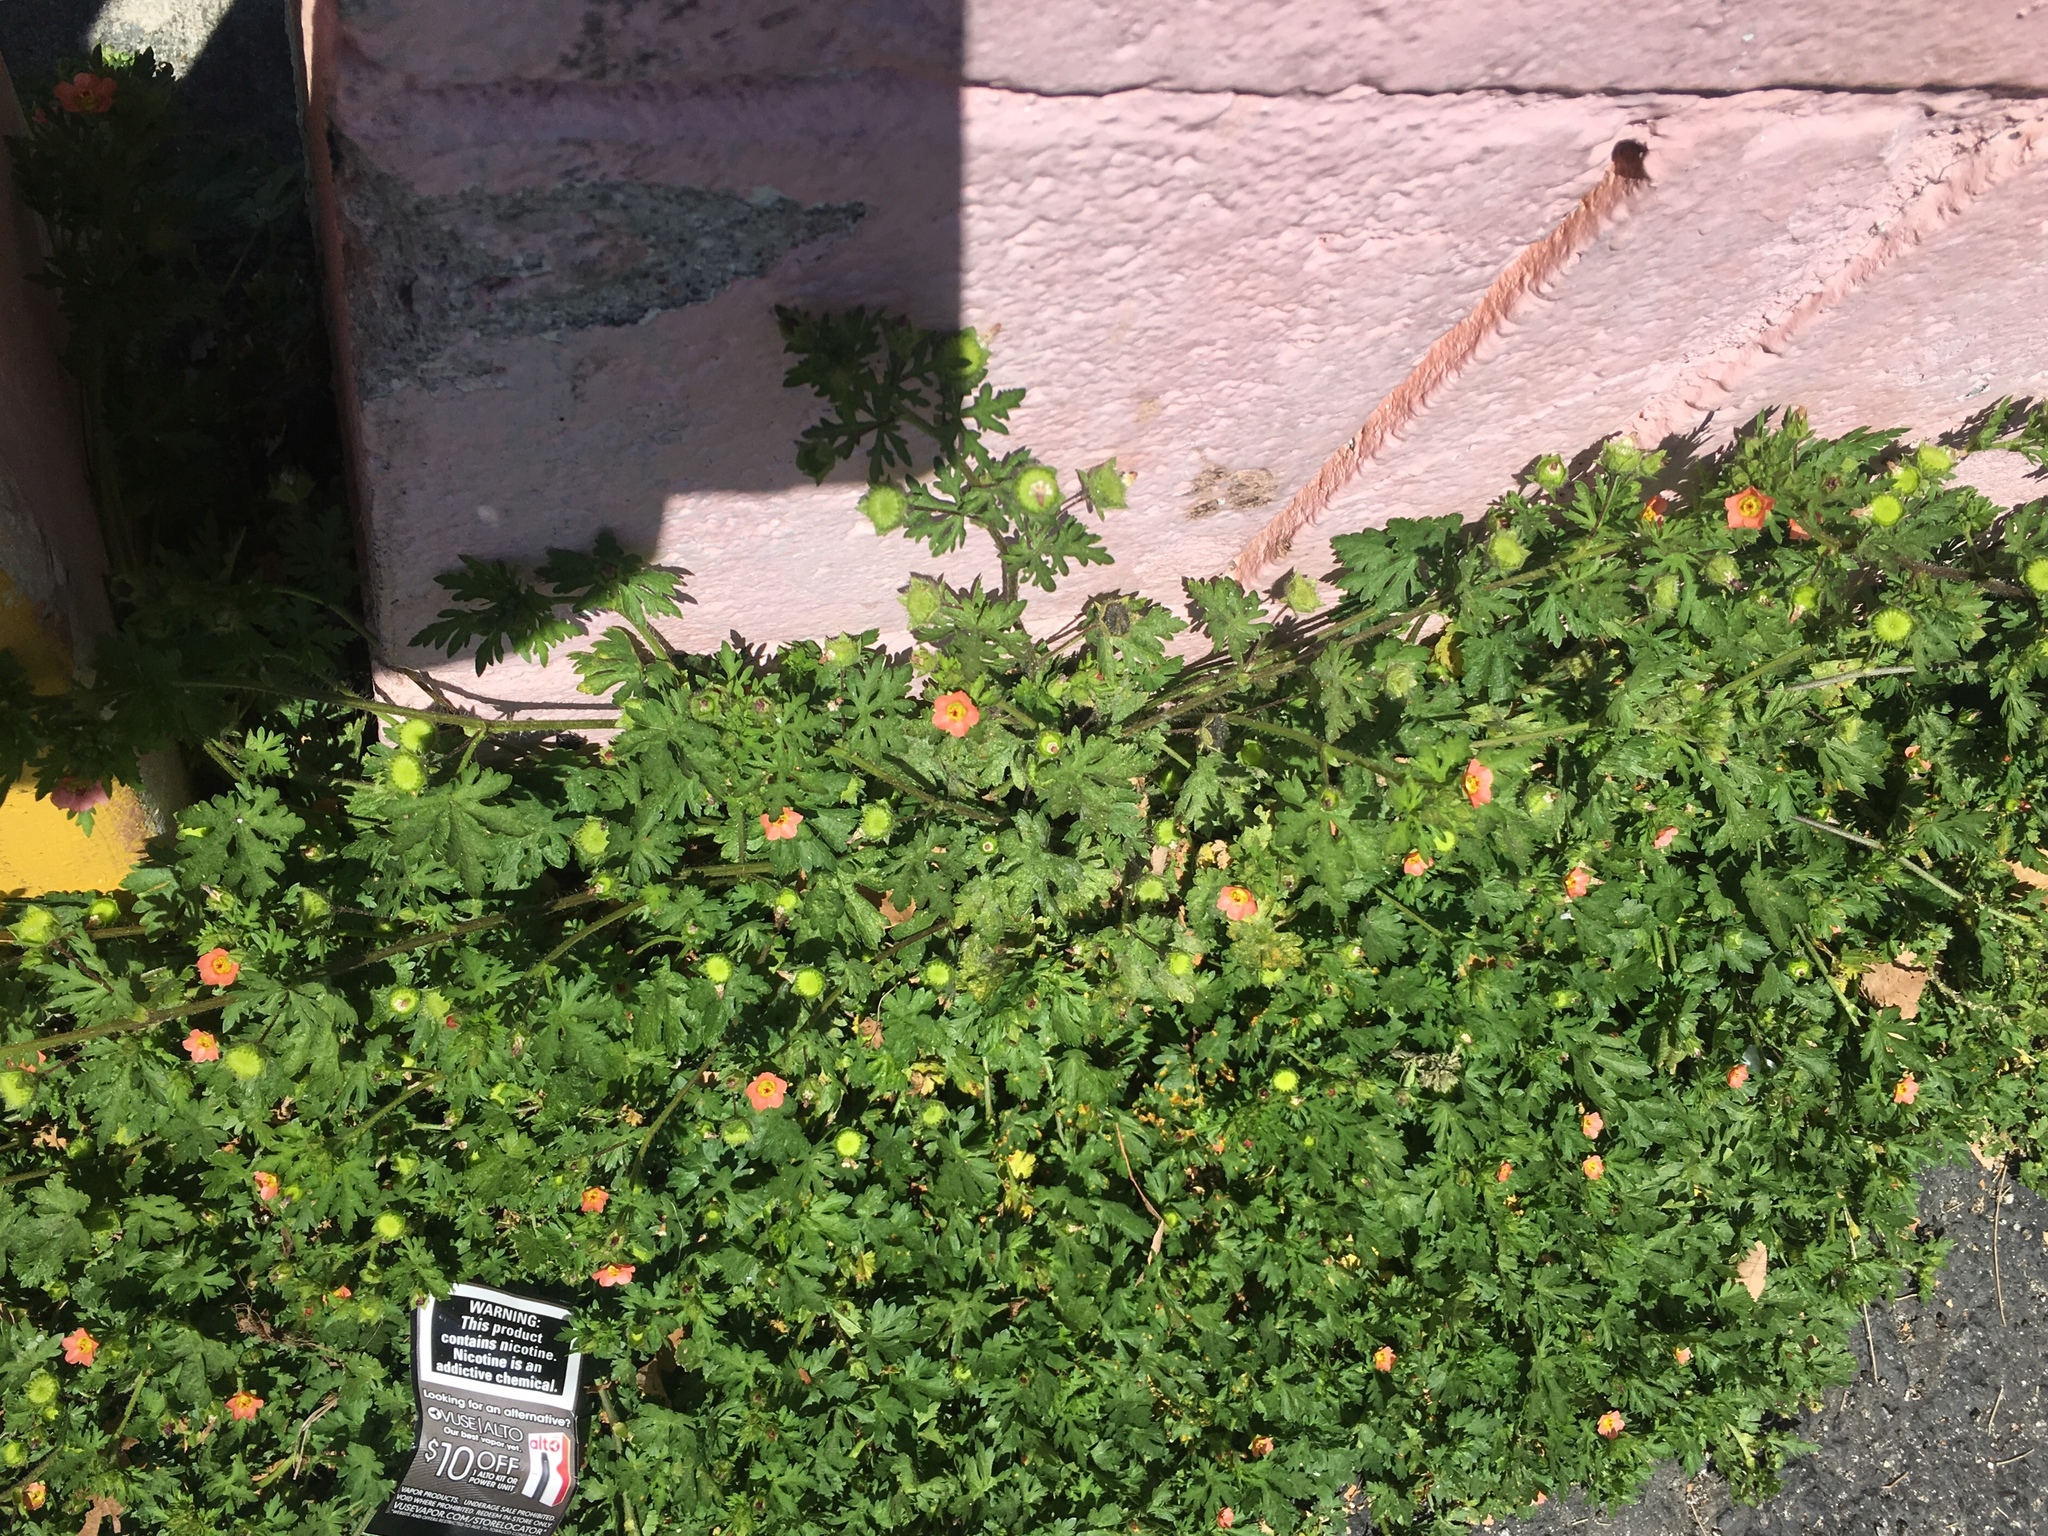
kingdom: Plantae
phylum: Tracheophyta
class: Magnoliopsida
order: Malvales
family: Malvaceae
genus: Modiola
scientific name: Modiola caroliniana
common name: Carolina bristlemallow
